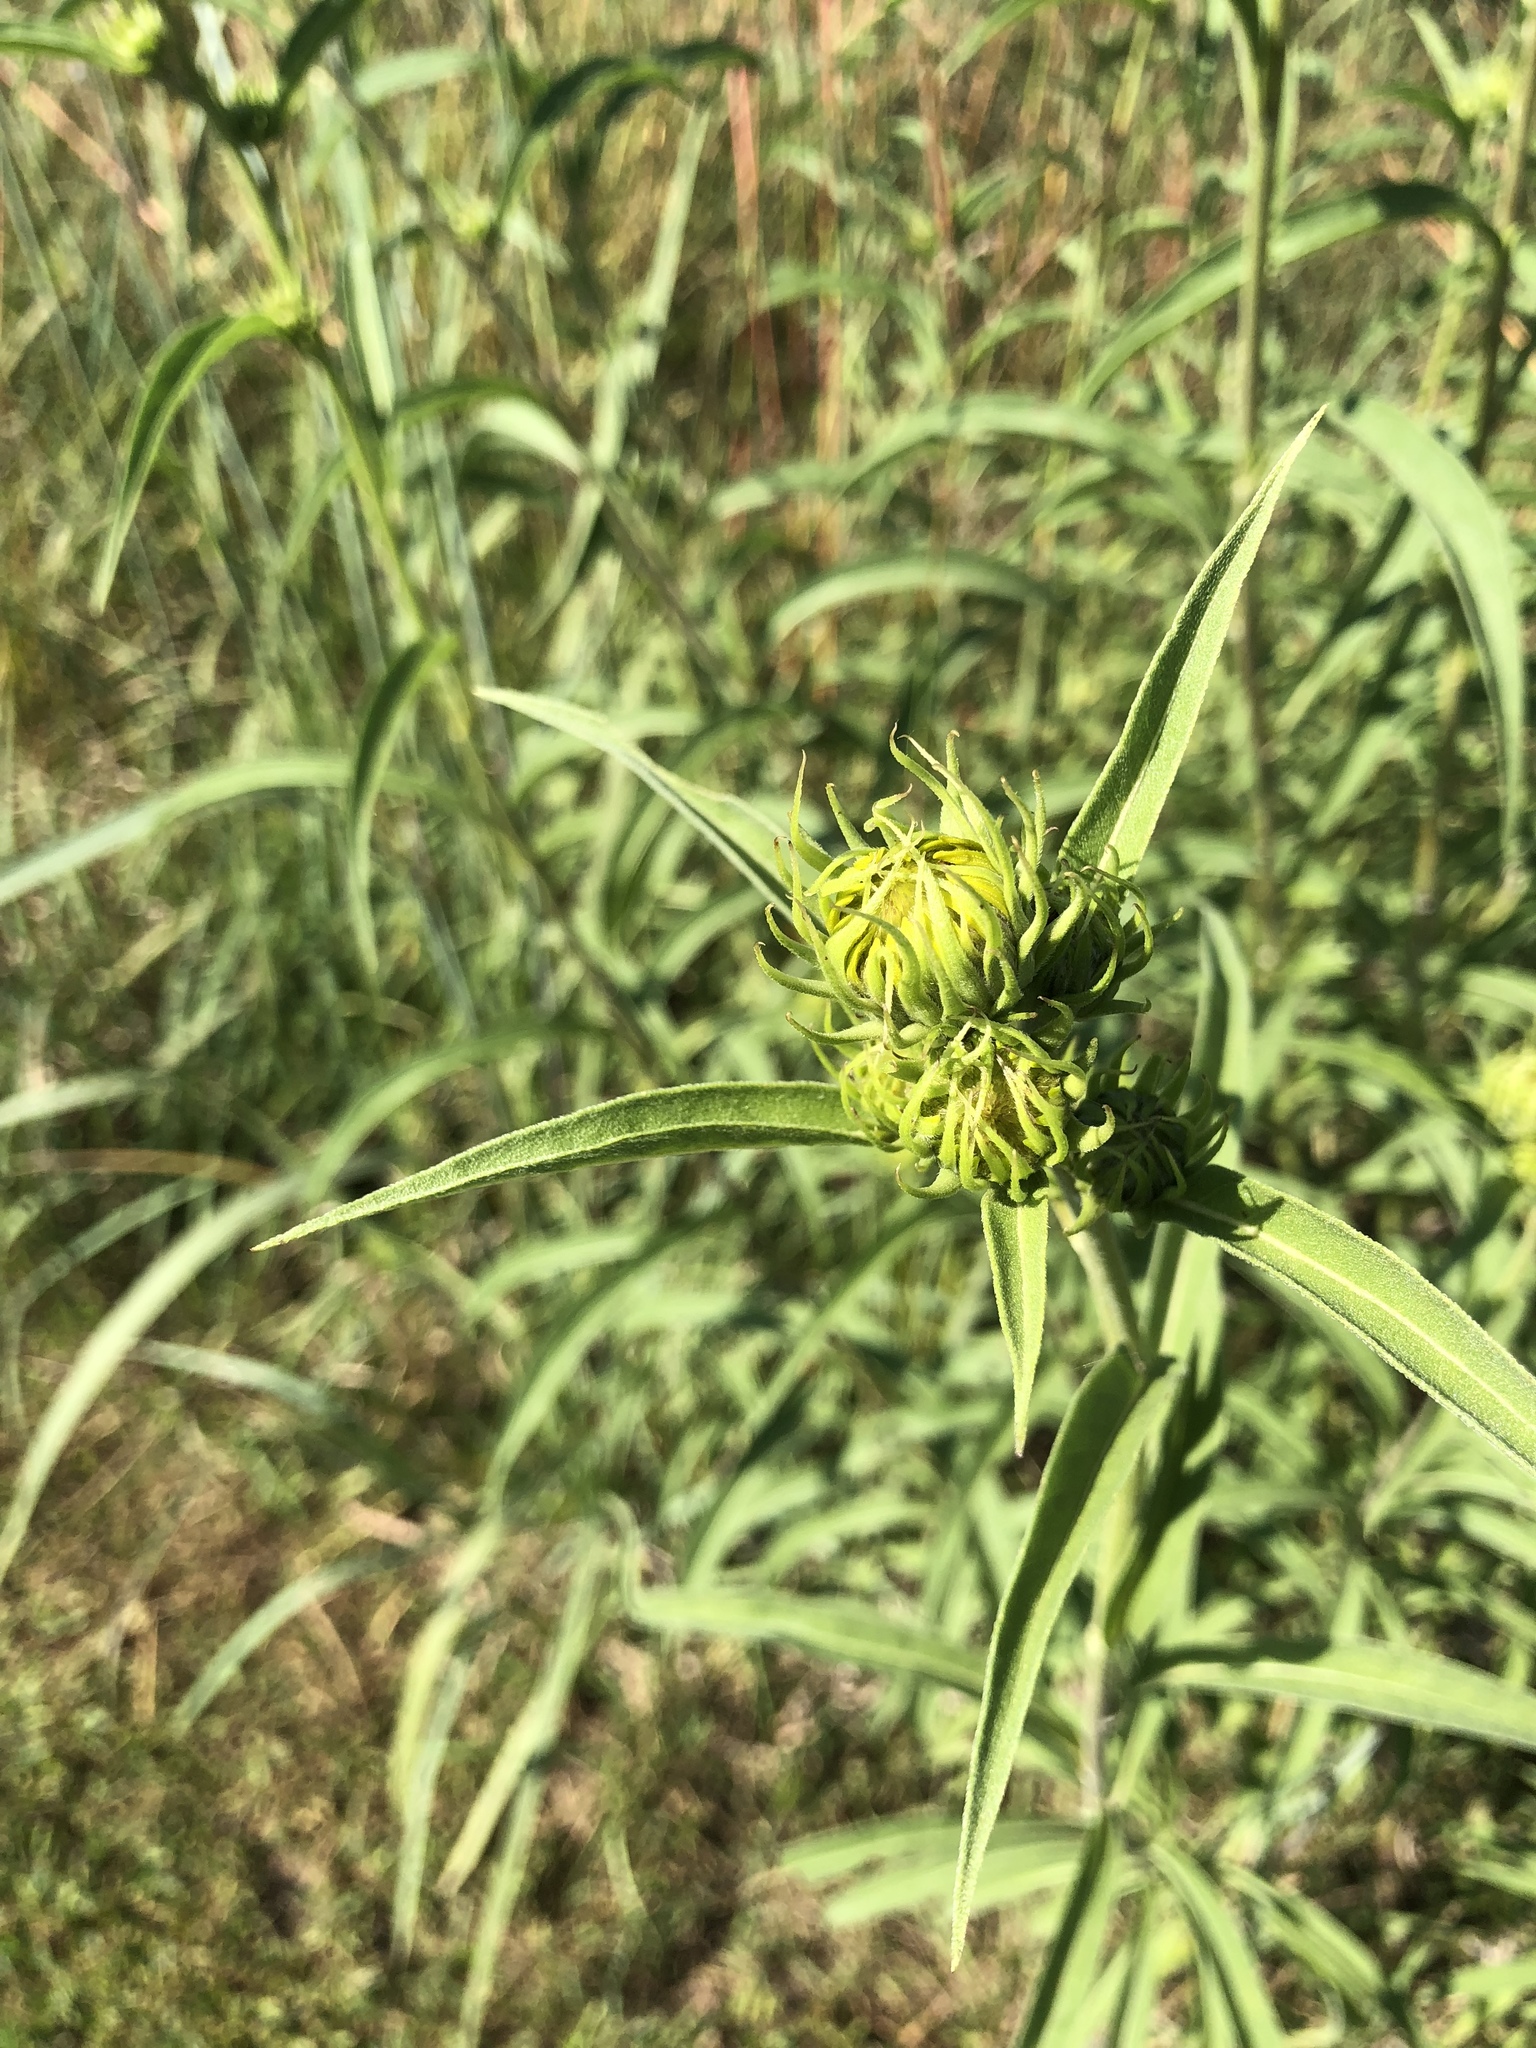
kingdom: Plantae
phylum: Tracheophyta
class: Magnoliopsida
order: Asterales
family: Asteraceae
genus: Helianthus
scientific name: Helianthus maximiliani
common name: Maximilian's sunflower
